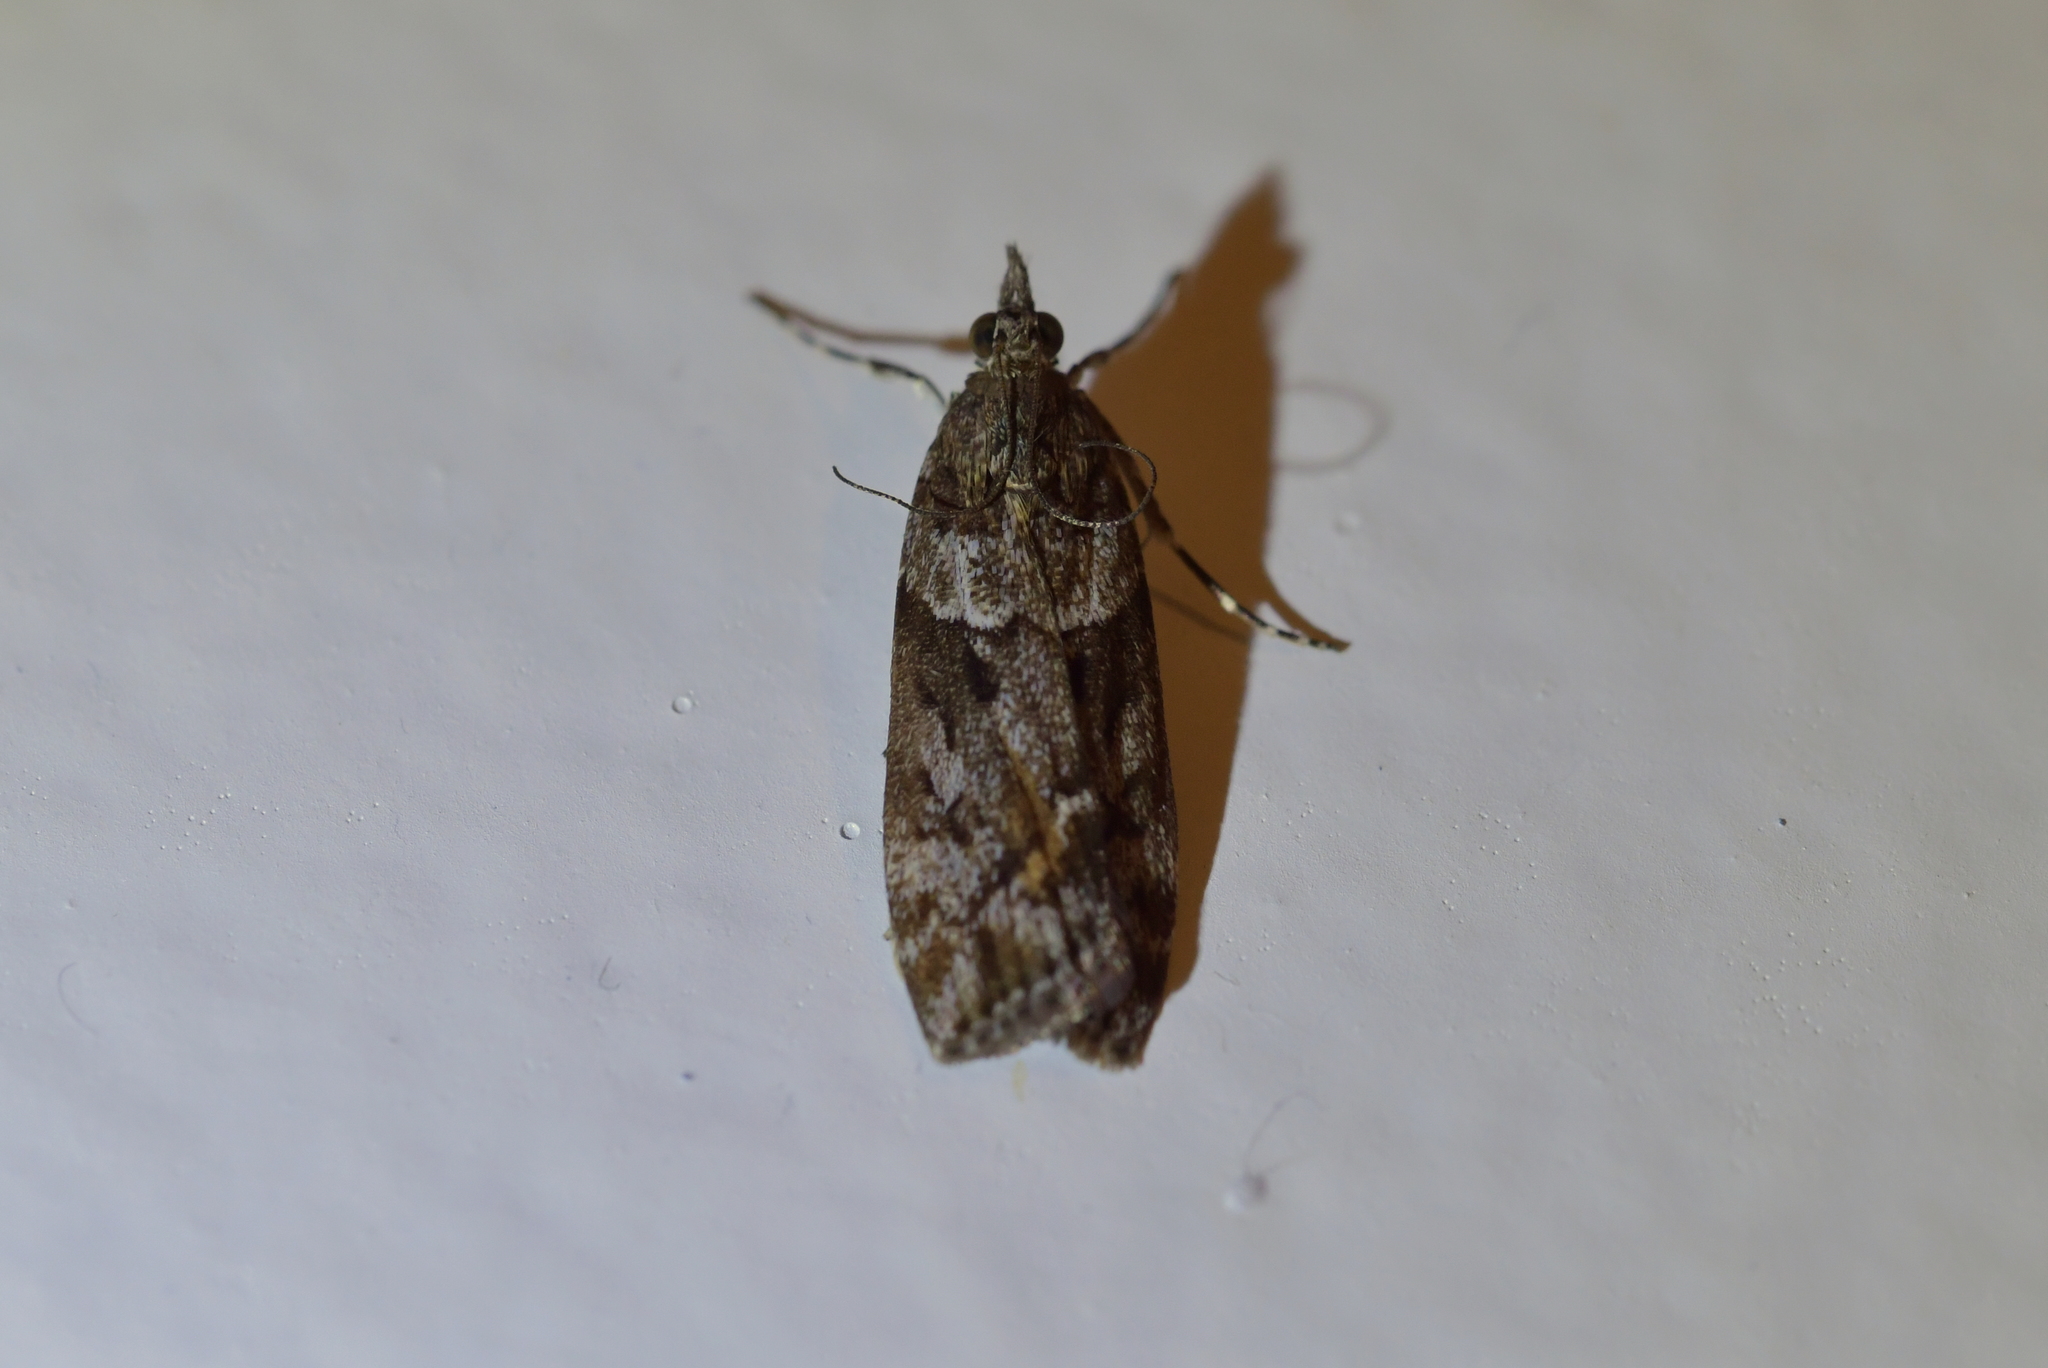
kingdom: Animalia
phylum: Arthropoda
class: Insecta
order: Lepidoptera
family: Crambidae
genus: Eudonia
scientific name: Eudonia submarginalis
